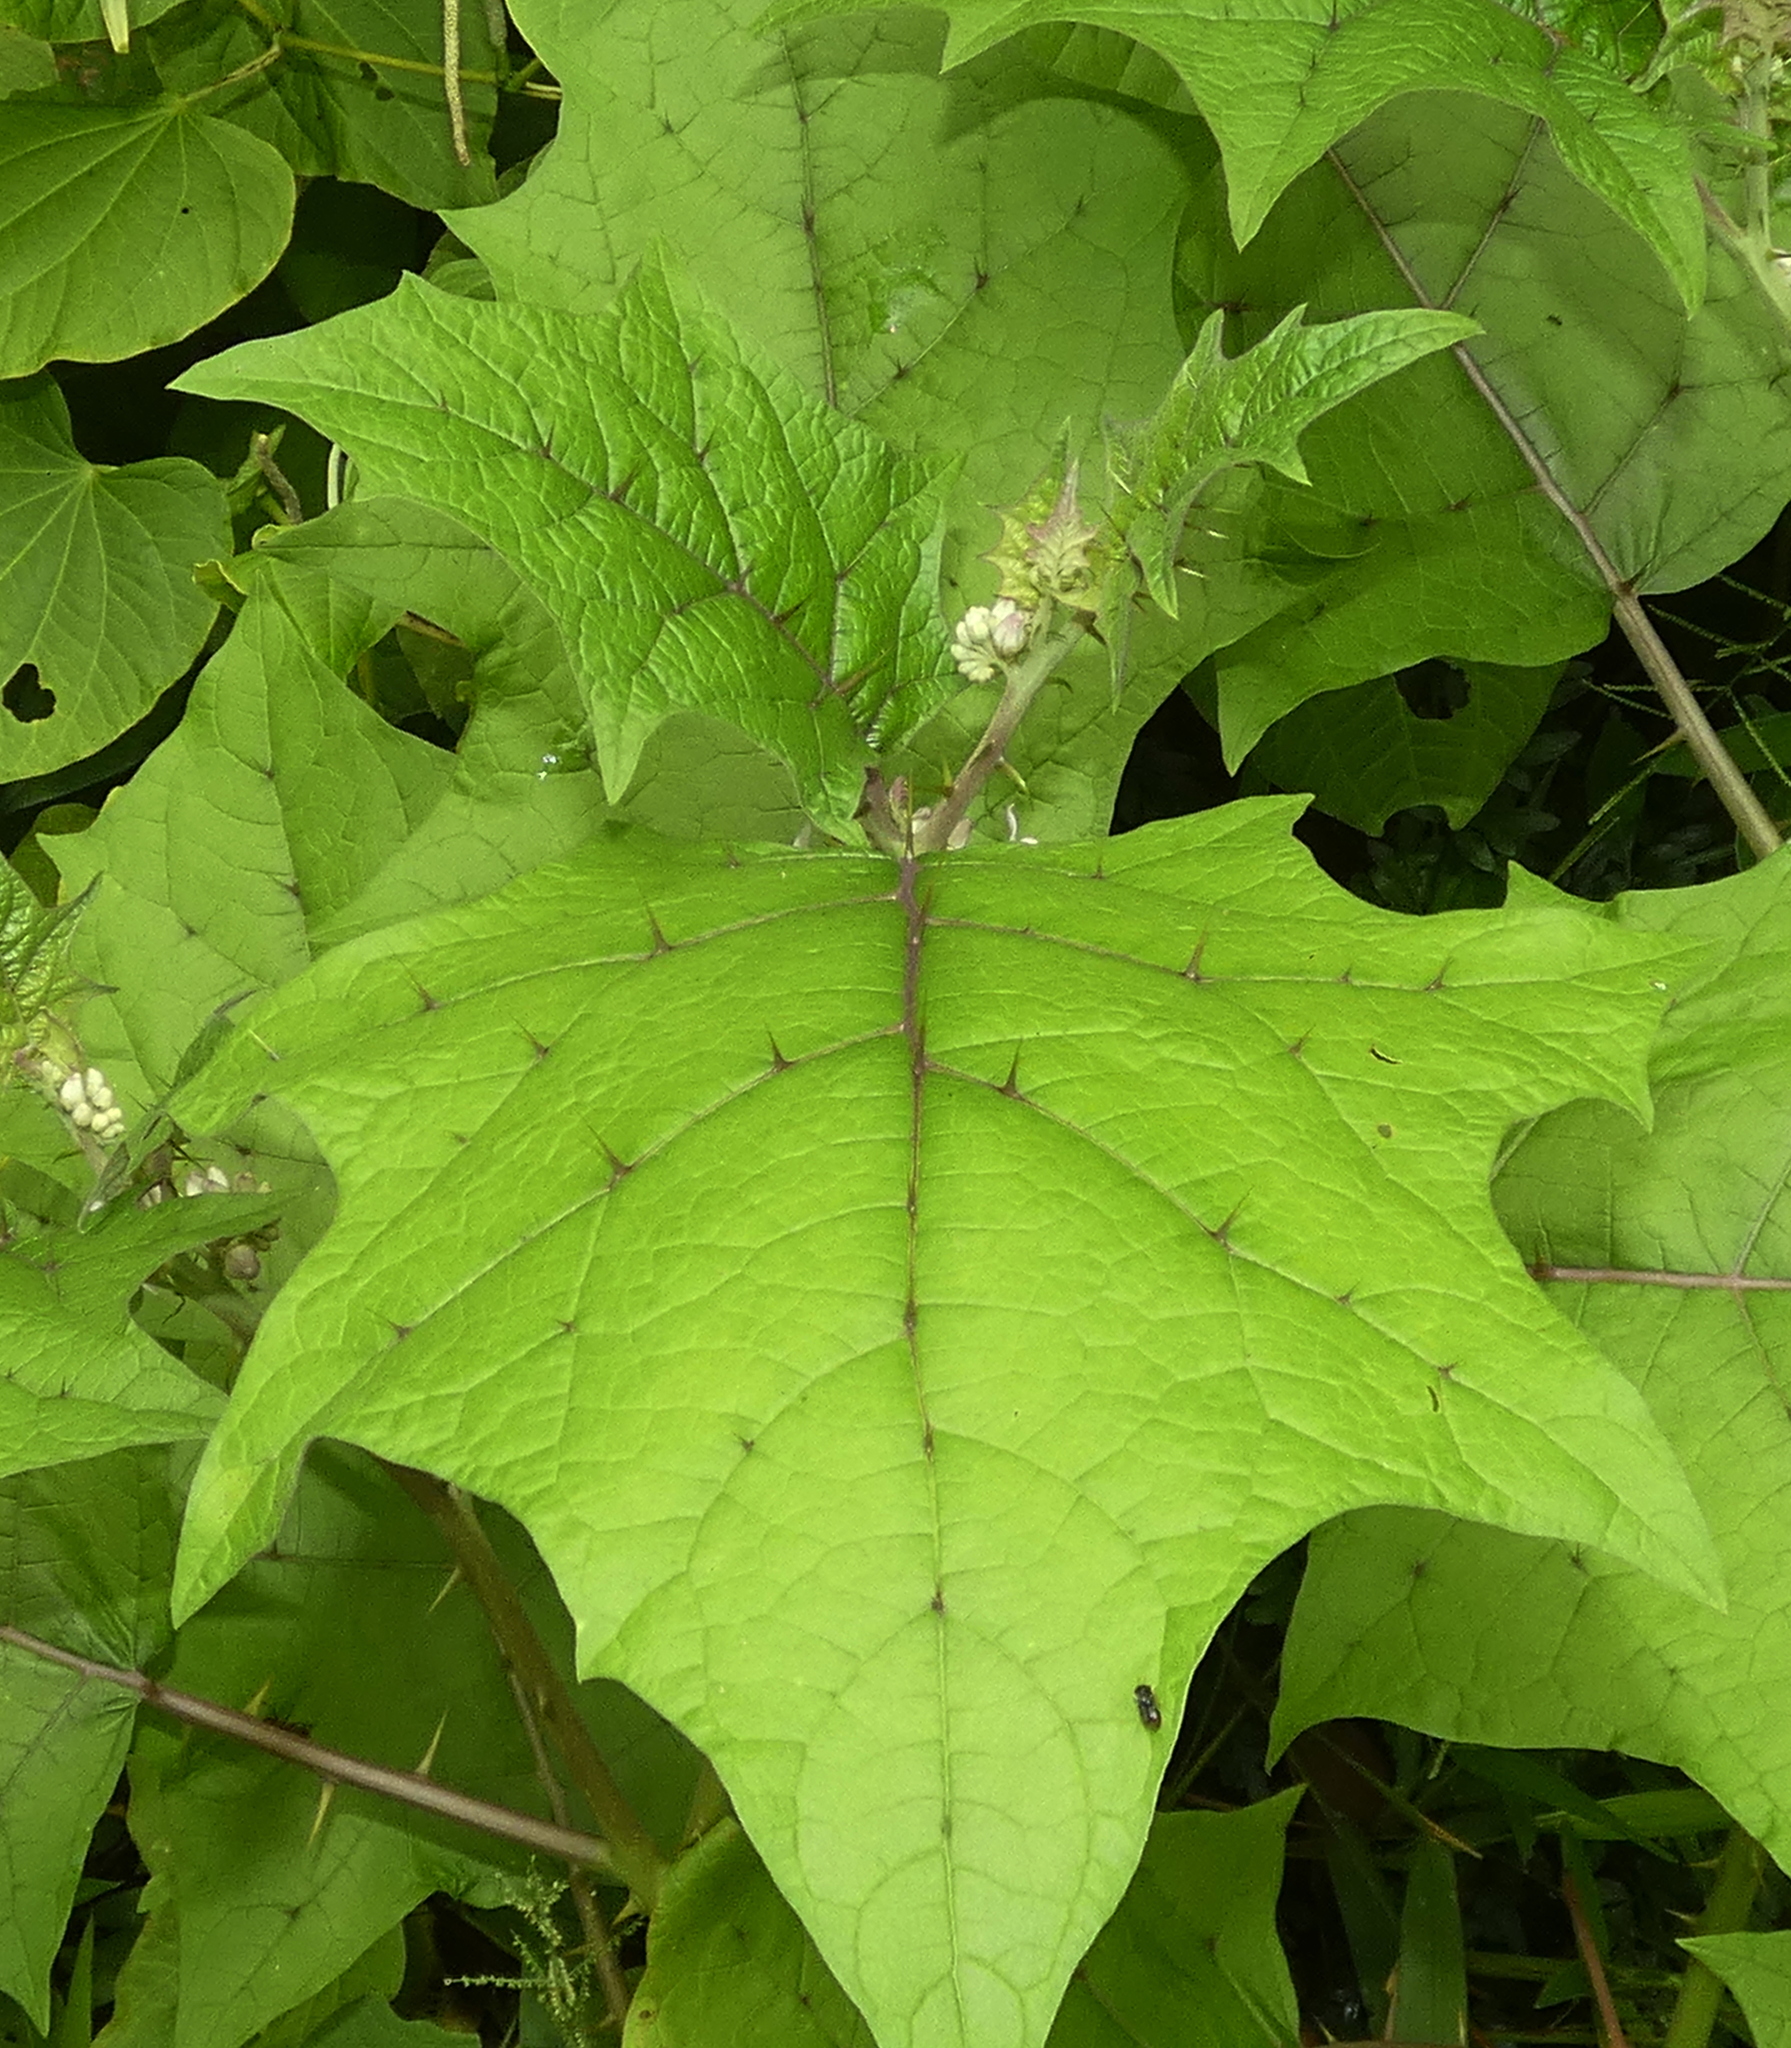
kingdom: Plantae
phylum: Tracheophyta
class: Magnoliopsida
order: Solanales
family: Solanaceae
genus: Solanum
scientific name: Solanum
